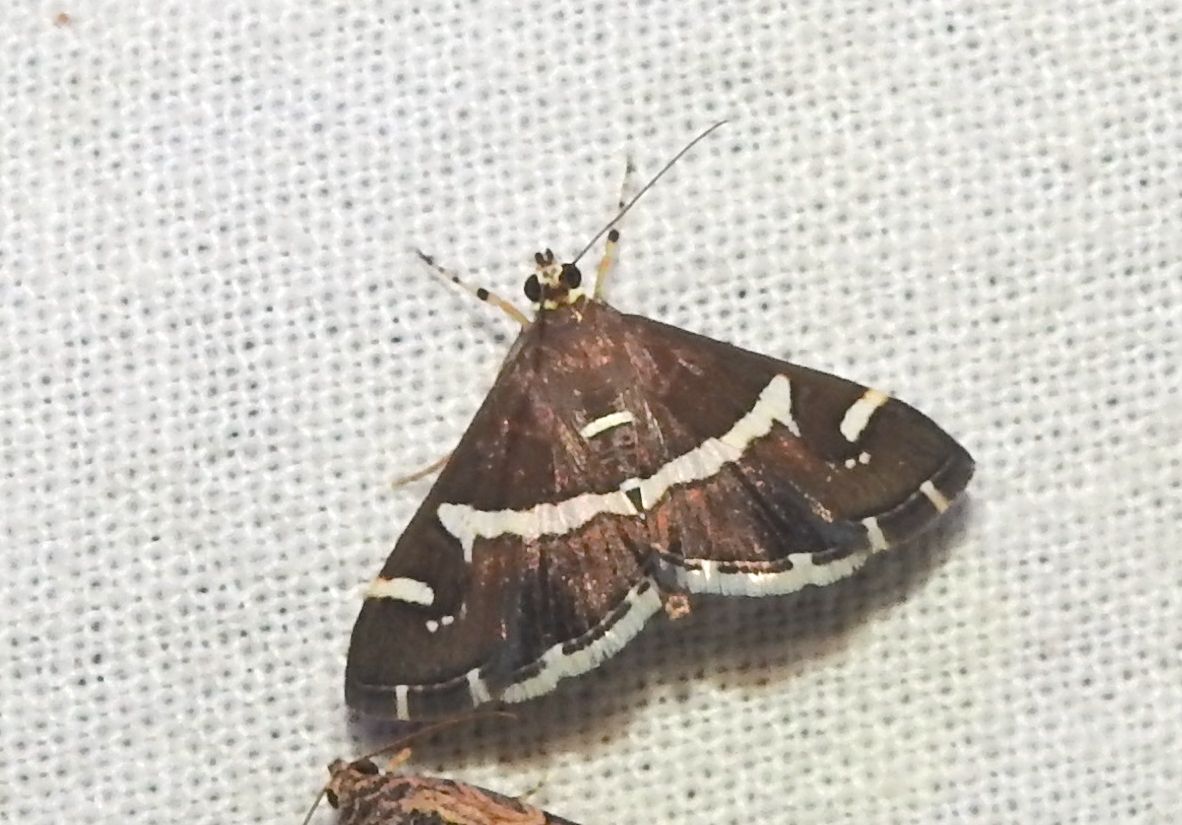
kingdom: Animalia
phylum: Arthropoda
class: Insecta
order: Lepidoptera
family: Crambidae
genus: Spoladea
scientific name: Spoladea recurvalis
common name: Beet webworm moth
